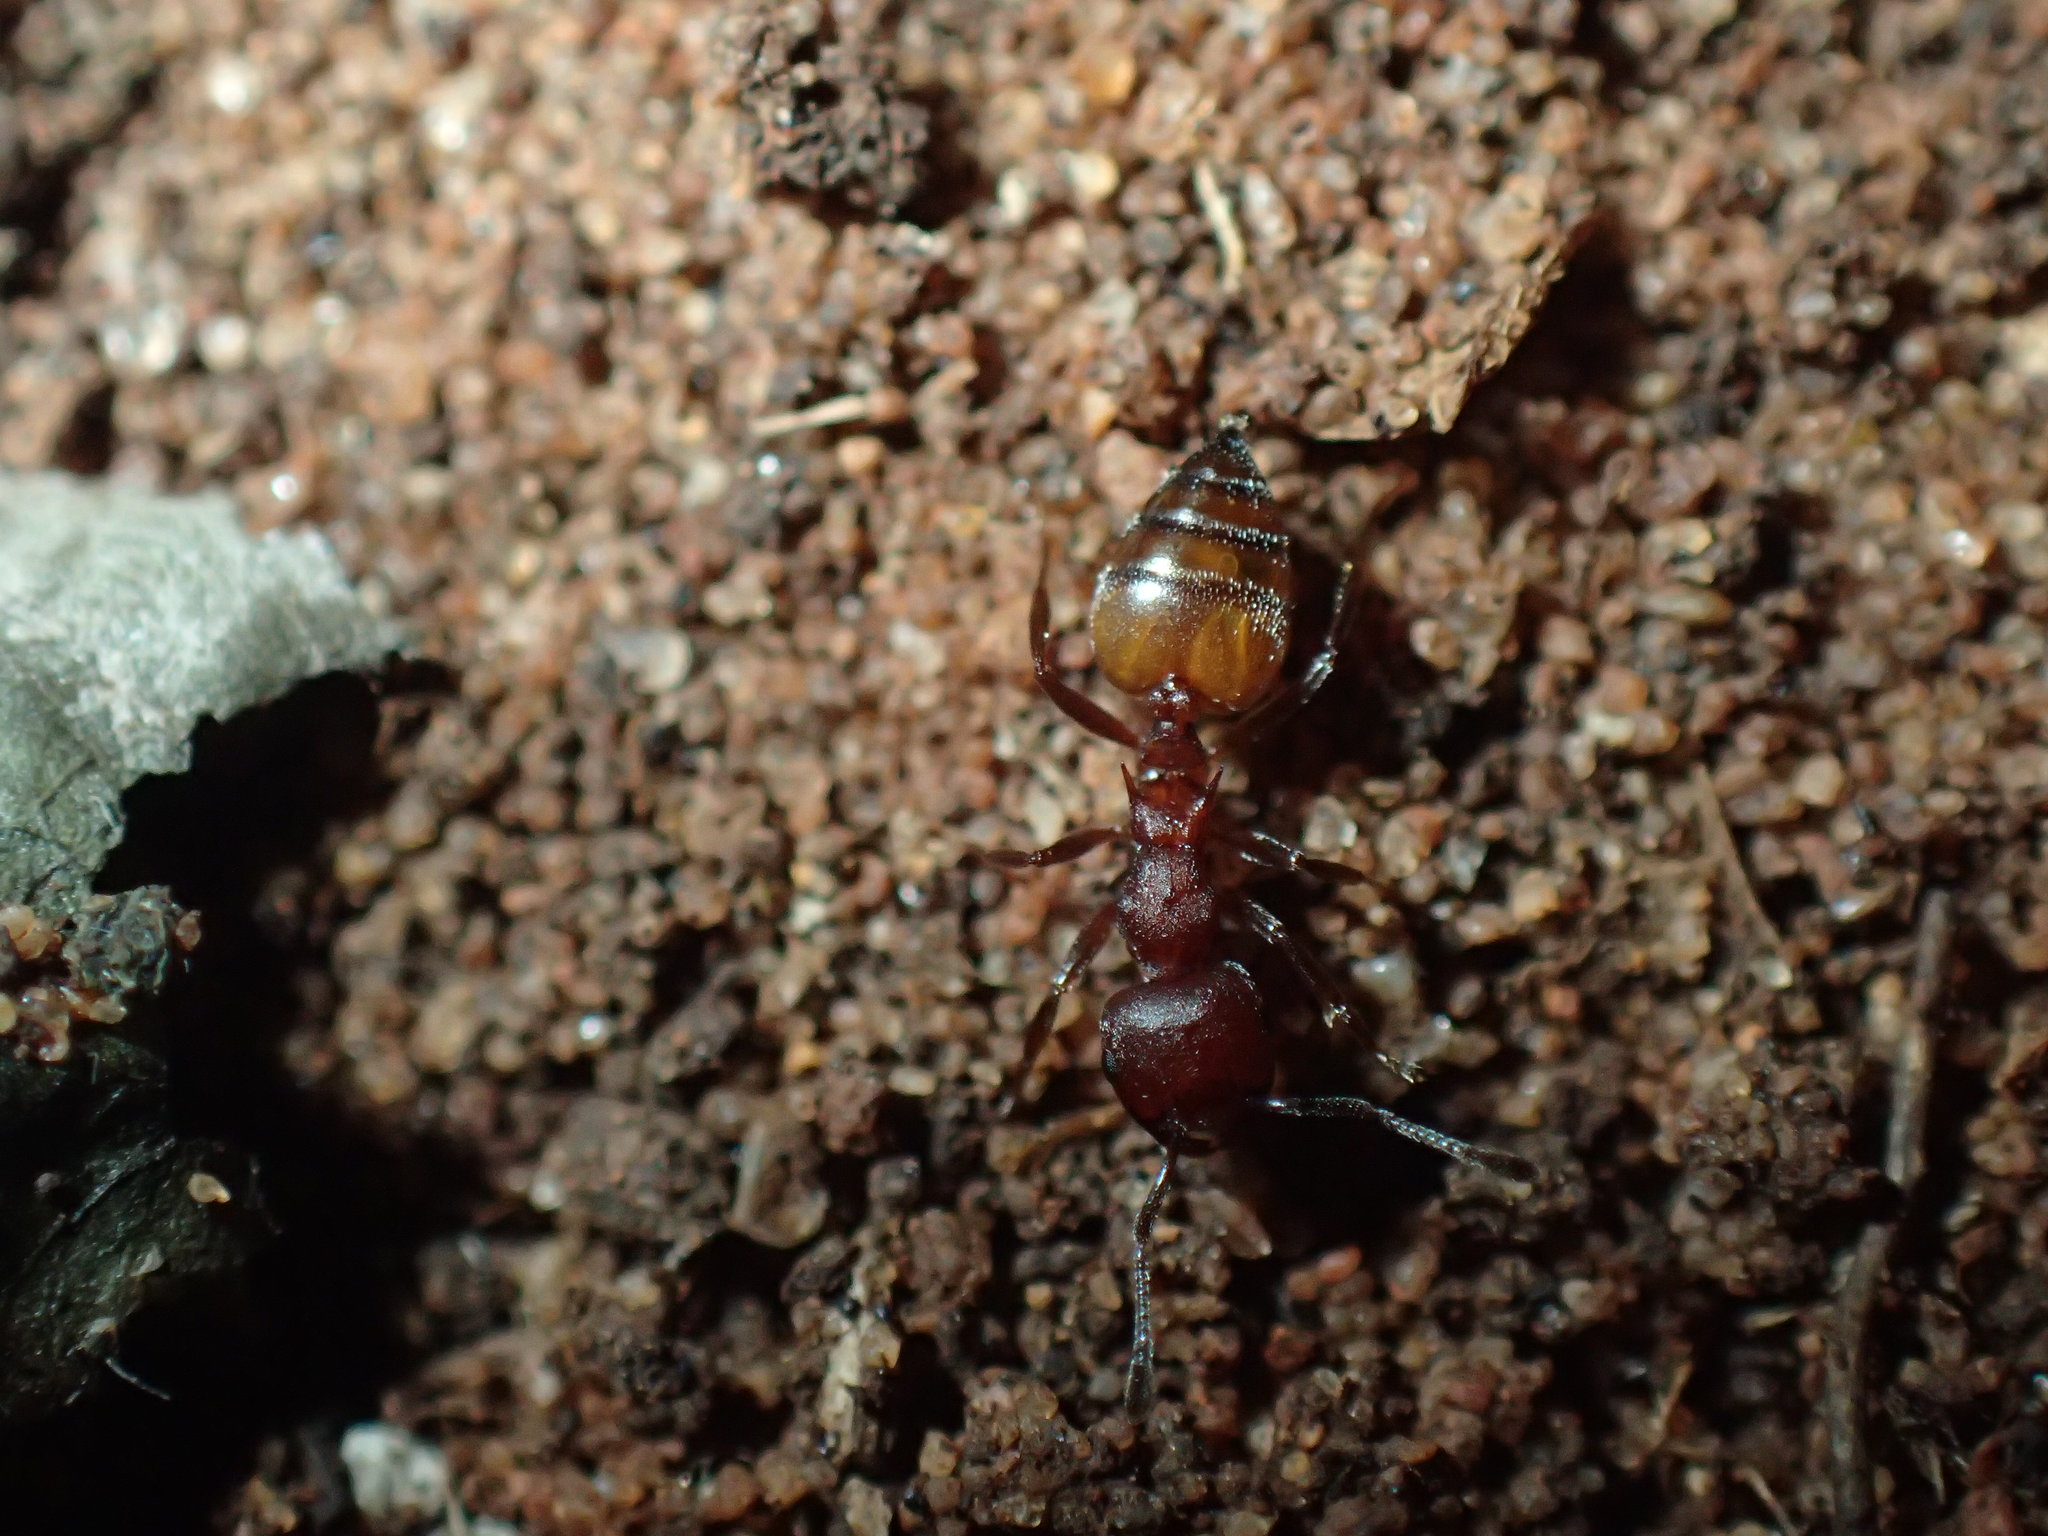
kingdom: Animalia
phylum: Arthropoda
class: Insecta
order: Hymenoptera
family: Formicidae
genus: Crematogaster
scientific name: Crematogaster castanea
